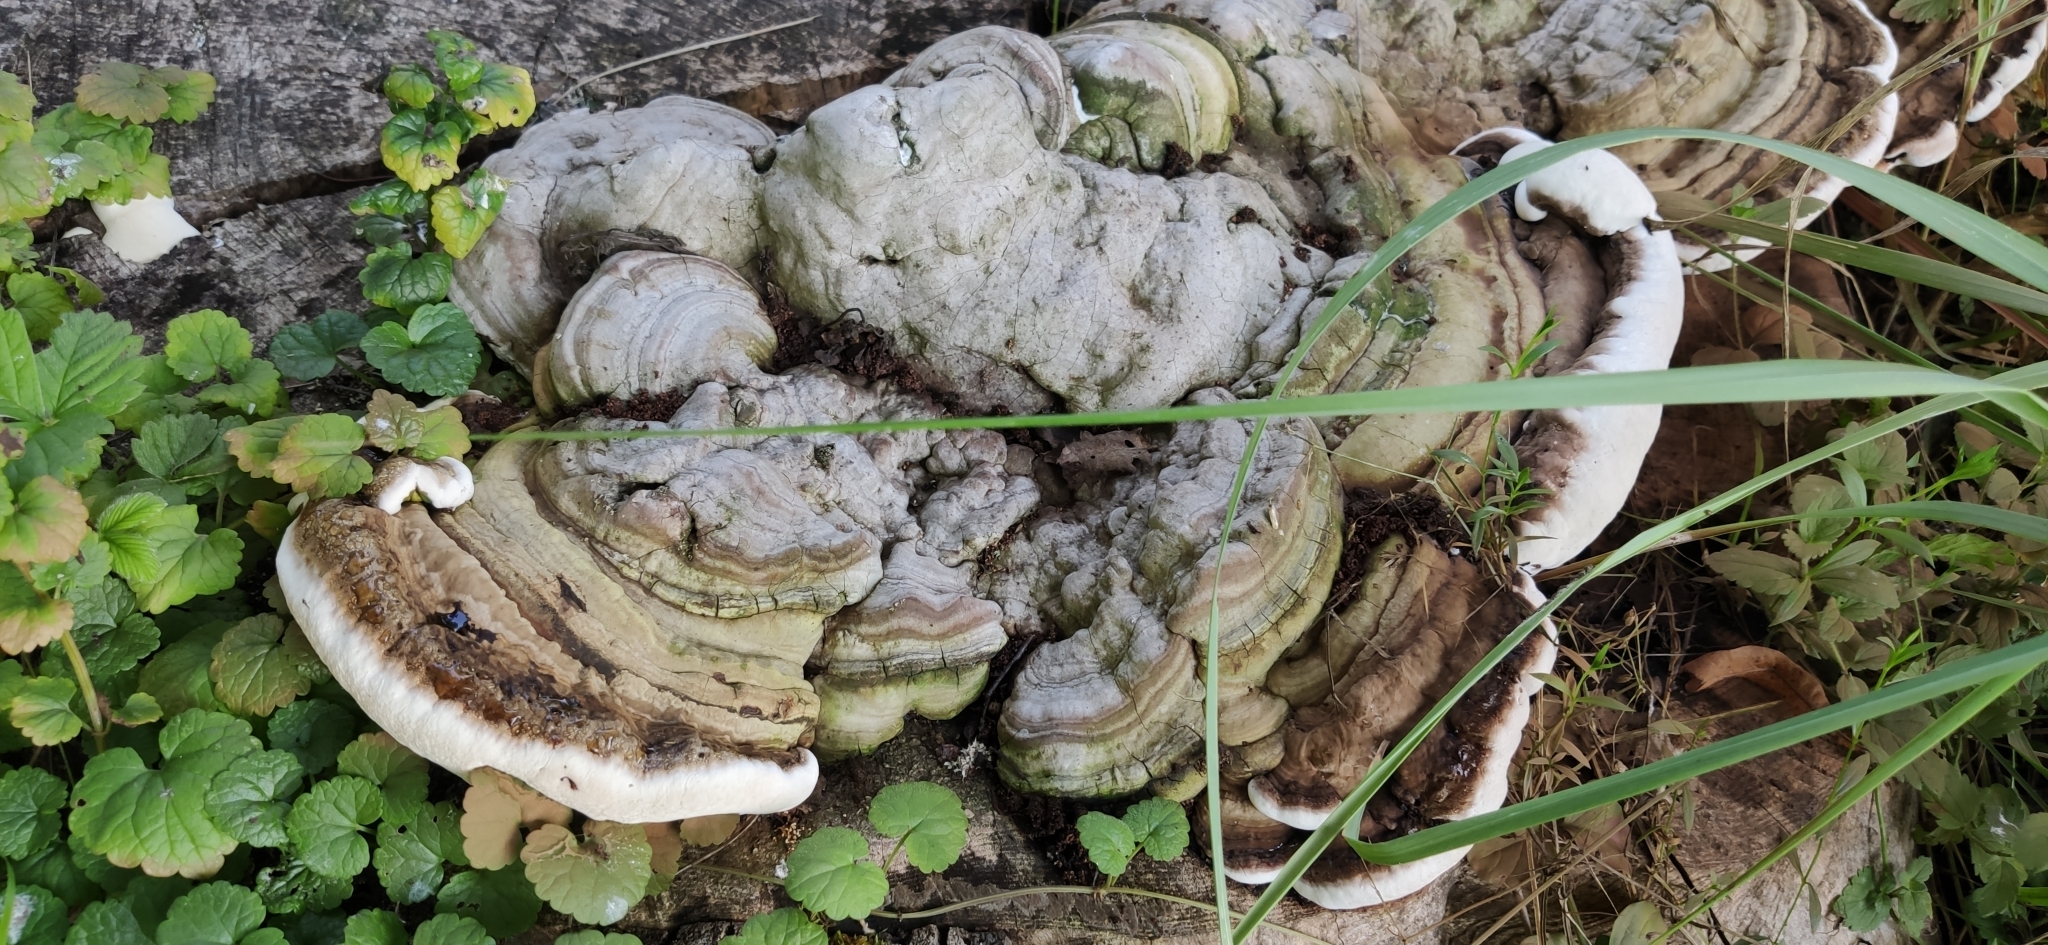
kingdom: Fungi
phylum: Basidiomycota
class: Agaricomycetes
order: Polyporales
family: Polyporaceae
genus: Ganoderma
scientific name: Ganoderma applanatum
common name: Artist's bracket
